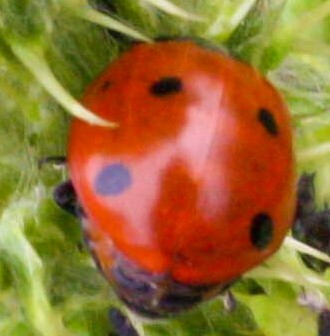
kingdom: Animalia
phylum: Arthropoda
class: Insecta
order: Coleoptera
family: Coccinellidae
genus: Coccinella
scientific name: Coccinella septempunctata
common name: Sevenspotted lady beetle
